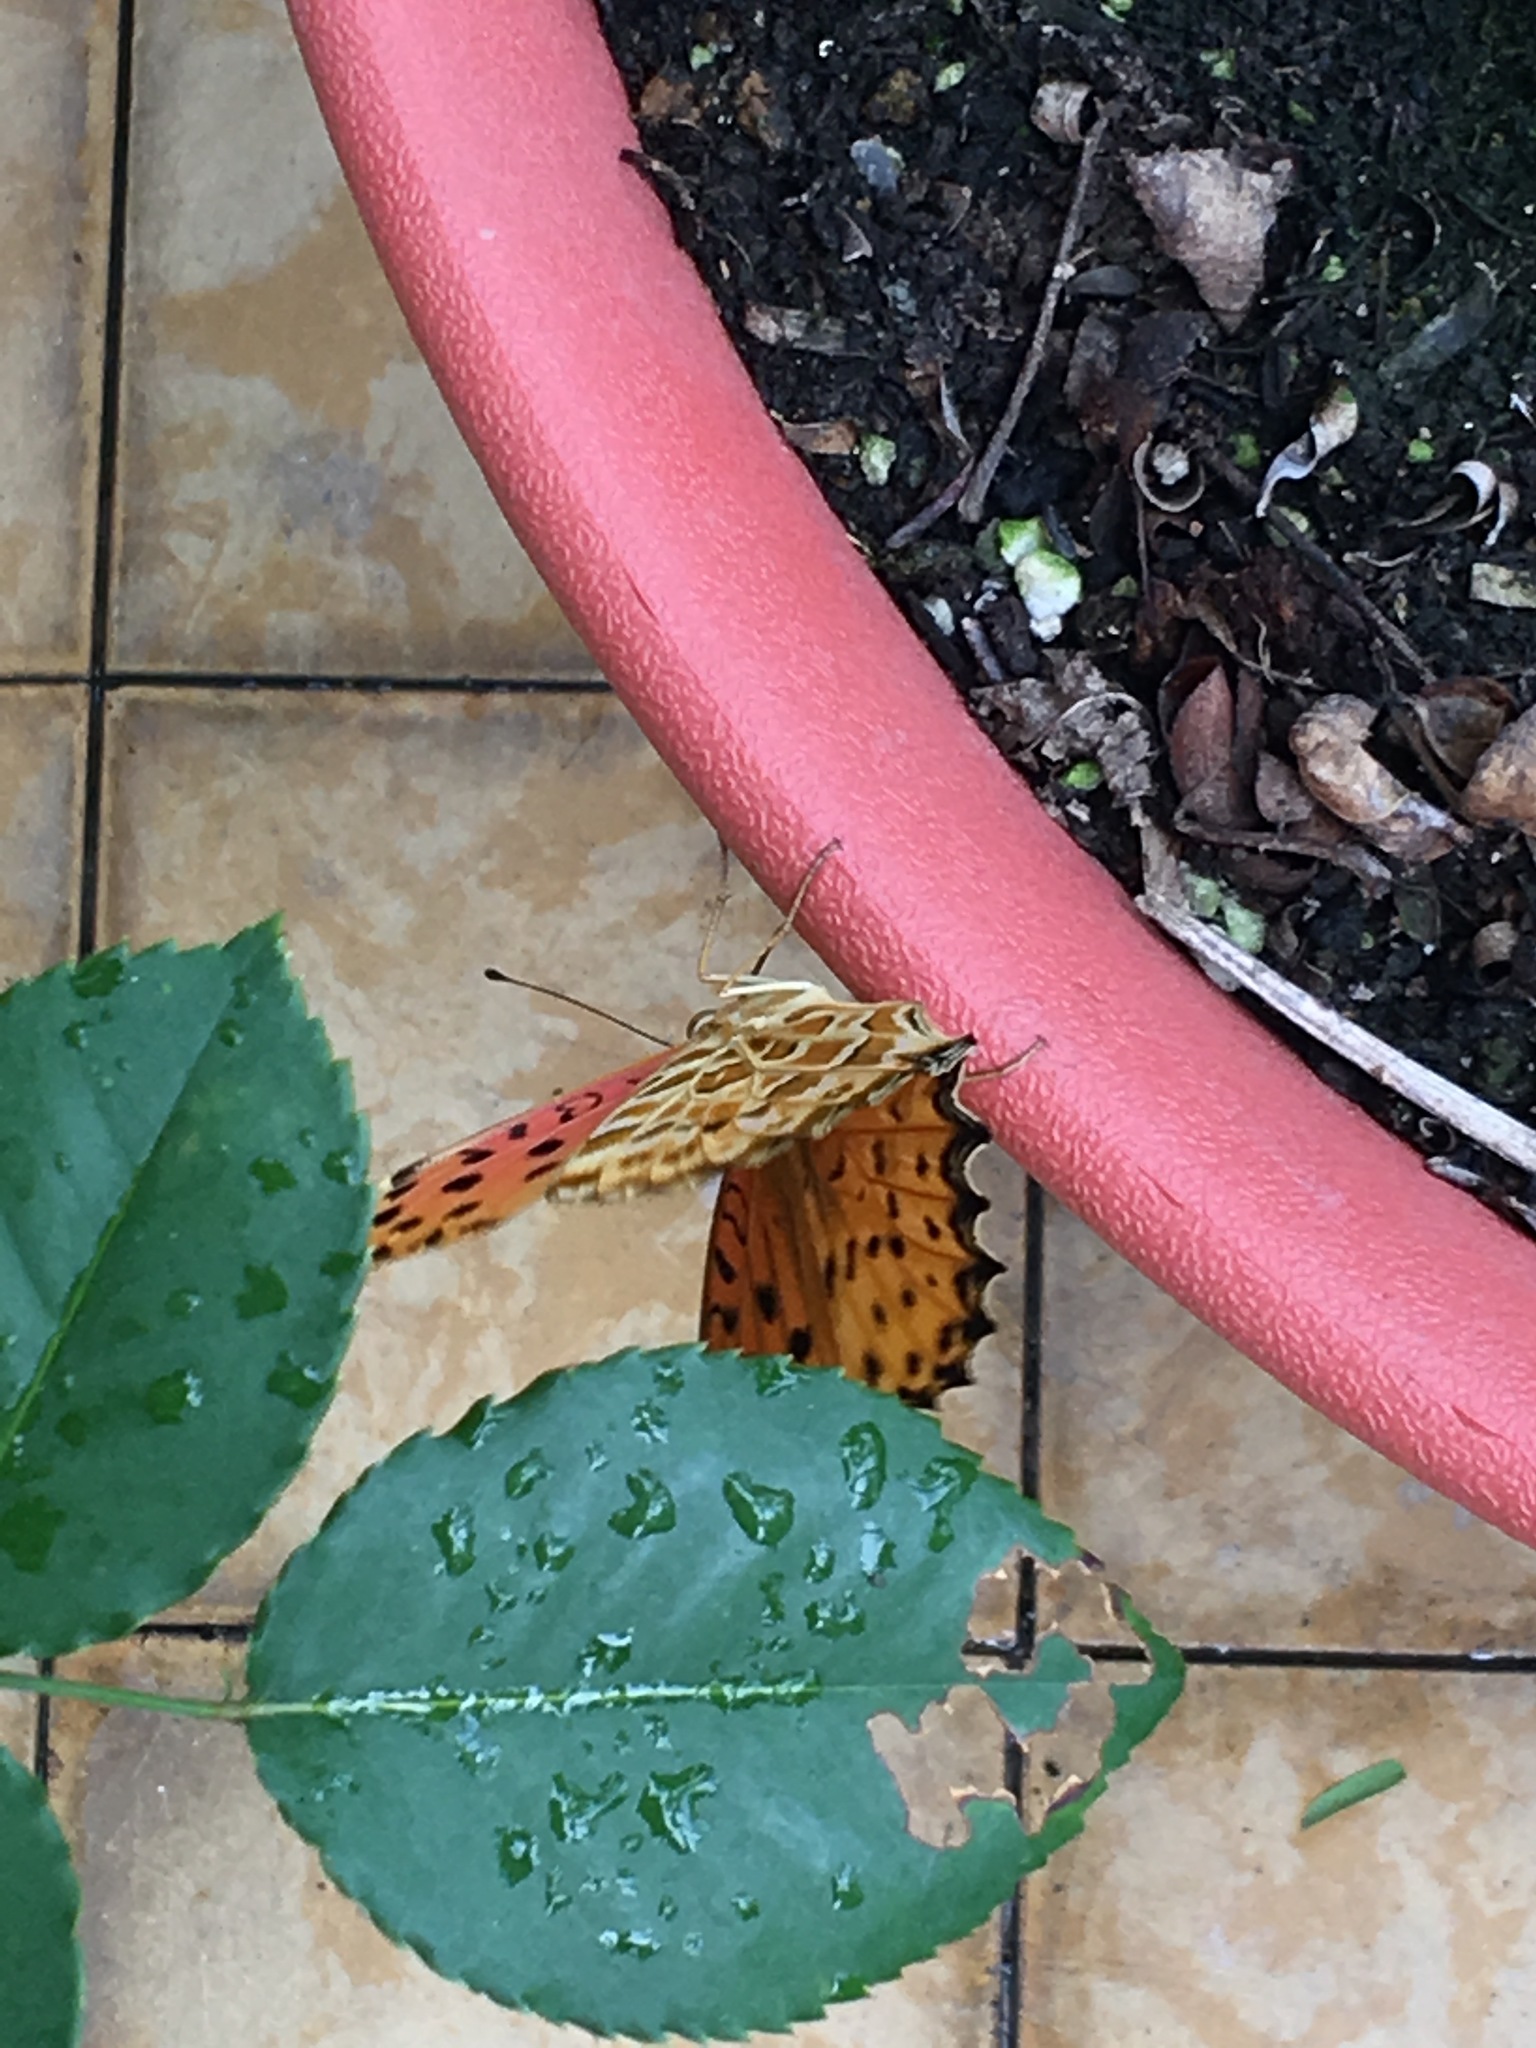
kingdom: Animalia
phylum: Arthropoda
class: Insecta
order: Lepidoptera
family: Nymphalidae
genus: Argynnis
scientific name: Argynnis hyperbius
